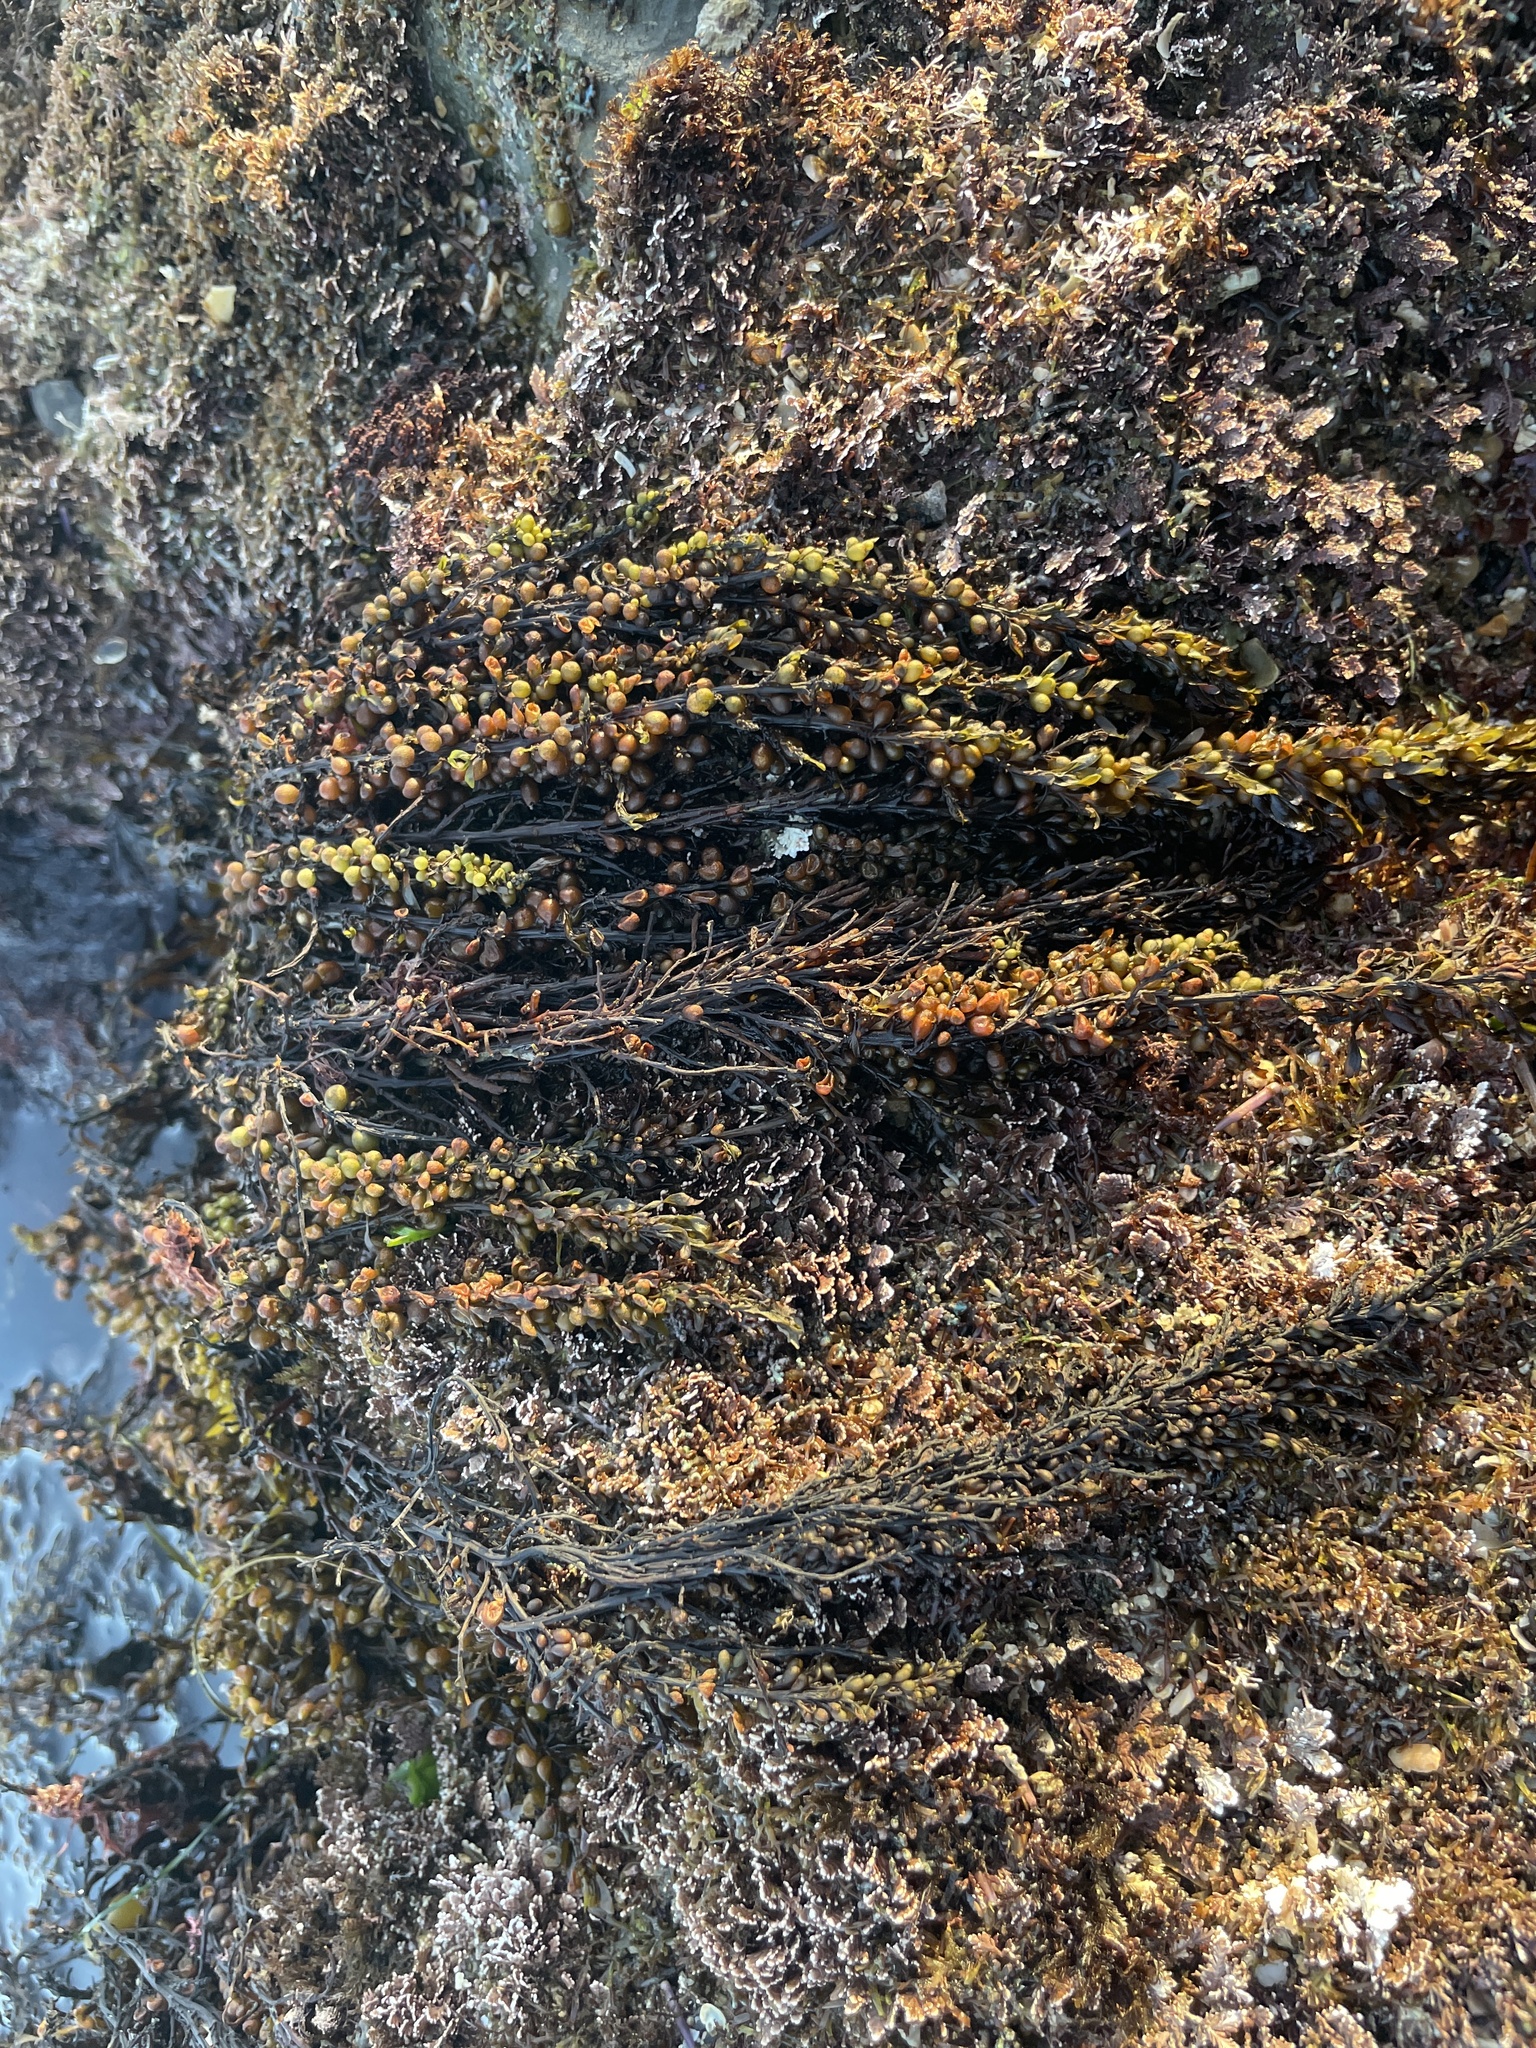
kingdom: Chromista
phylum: Ochrophyta
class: Phaeophyceae
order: Fucales
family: Sargassaceae
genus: Sargassum
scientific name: Sargassum muticum
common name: Japweed
